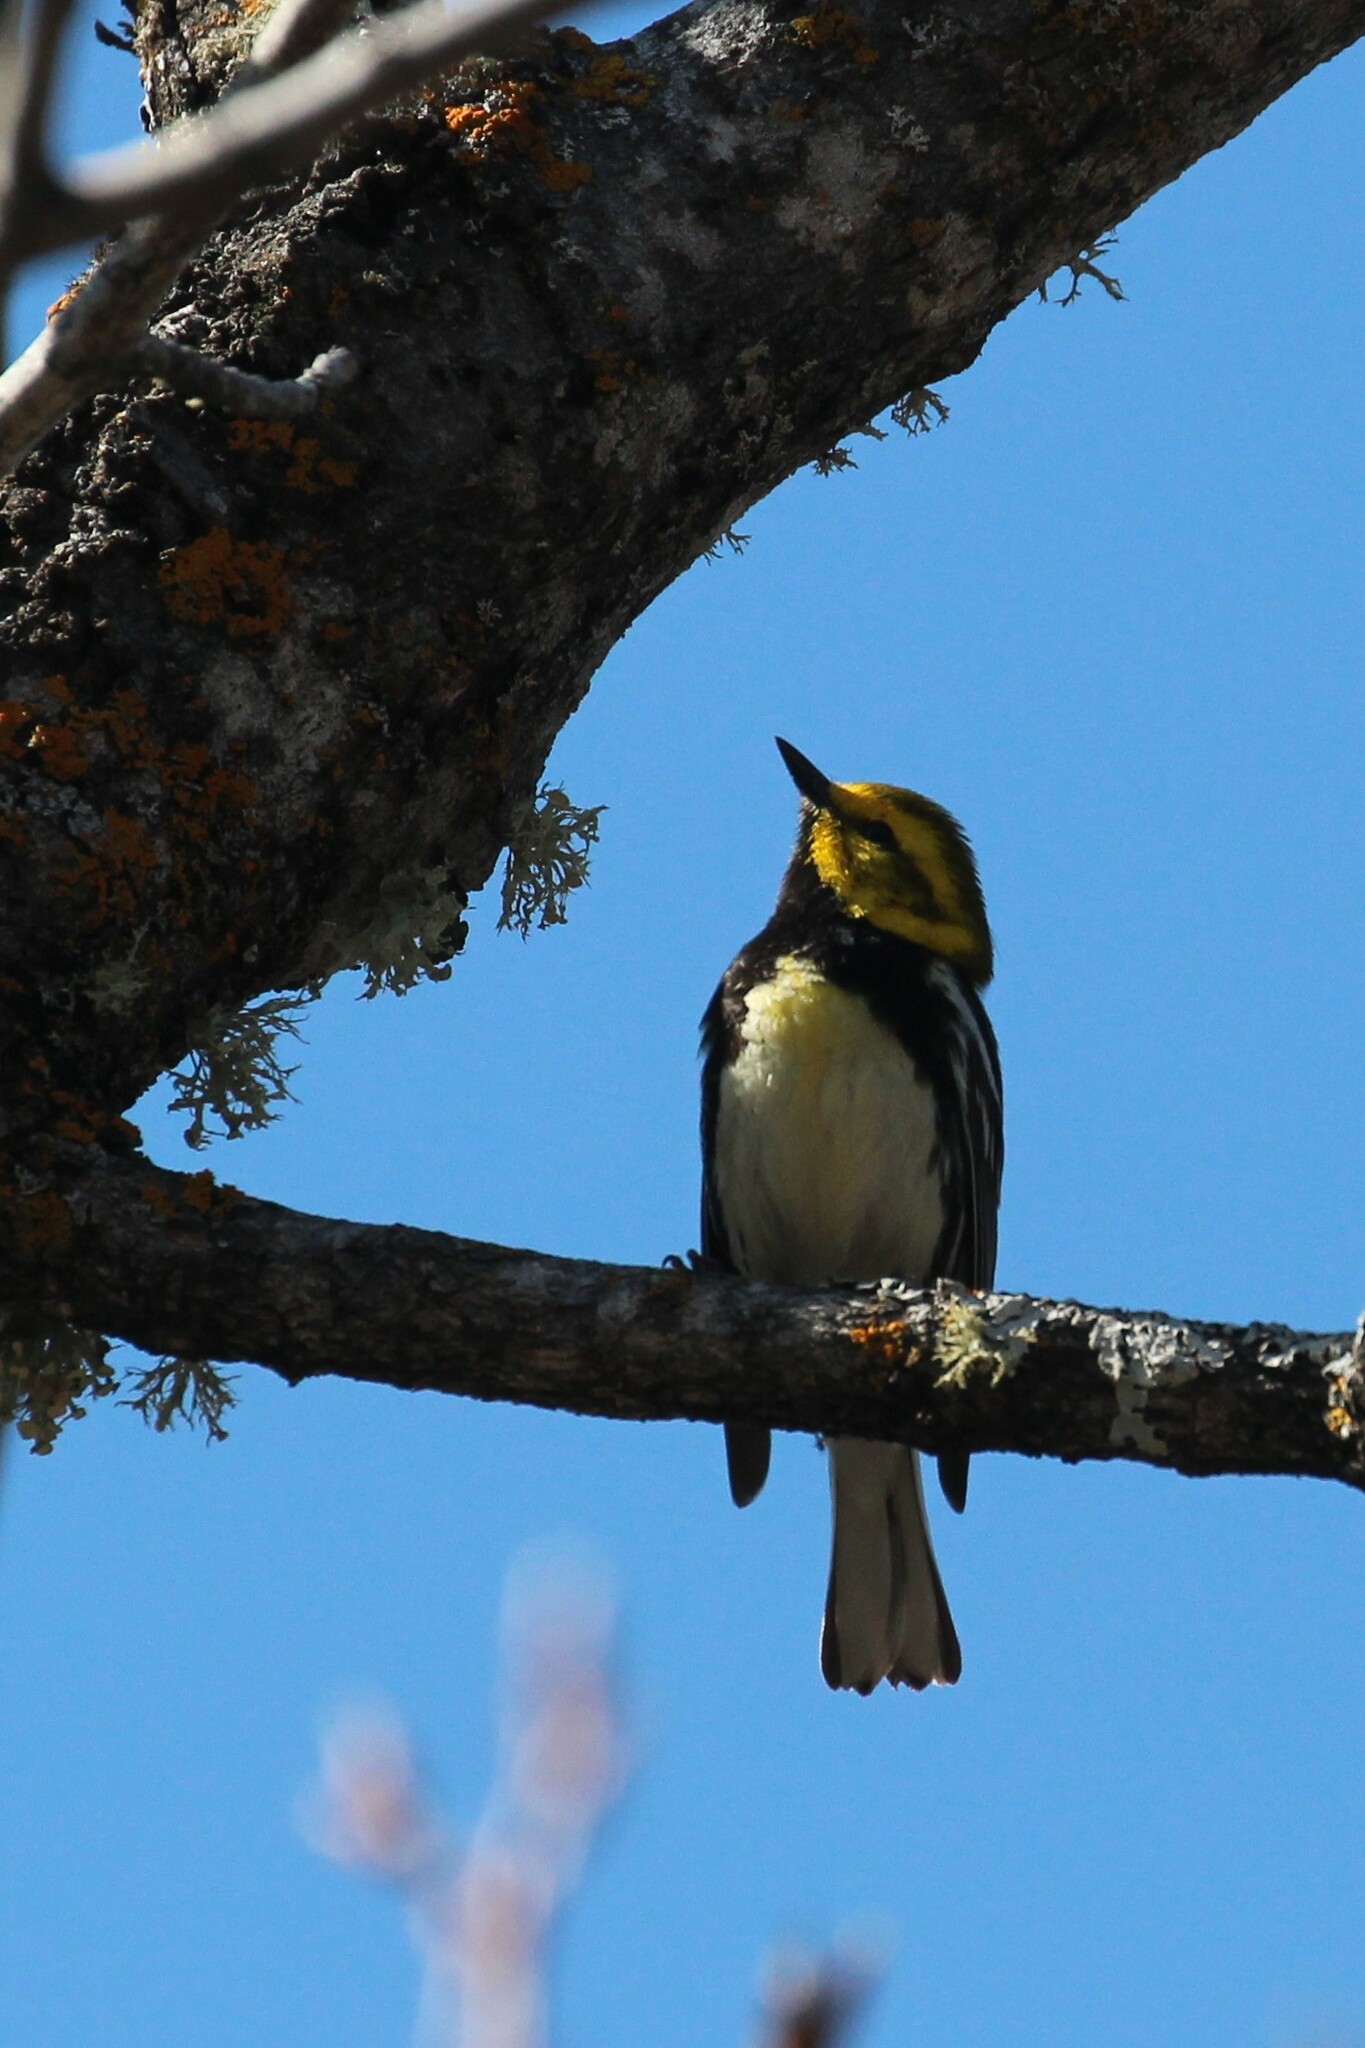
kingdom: Animalia
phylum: Chordata
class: Aves
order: Passeriformes
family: Parulidae
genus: Setophaga
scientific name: Setophaga virens
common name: Black-throated green warbler
